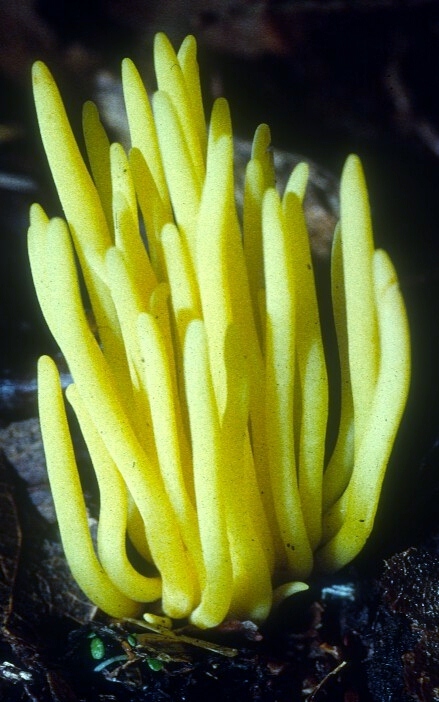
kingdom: Fungi
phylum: Basidiomycota
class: Agaricomycetes
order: Agaricales
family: Clavariaceae
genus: Clavulinopsis
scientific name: Clavulinopsis fusiformis
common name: Golden spindles
